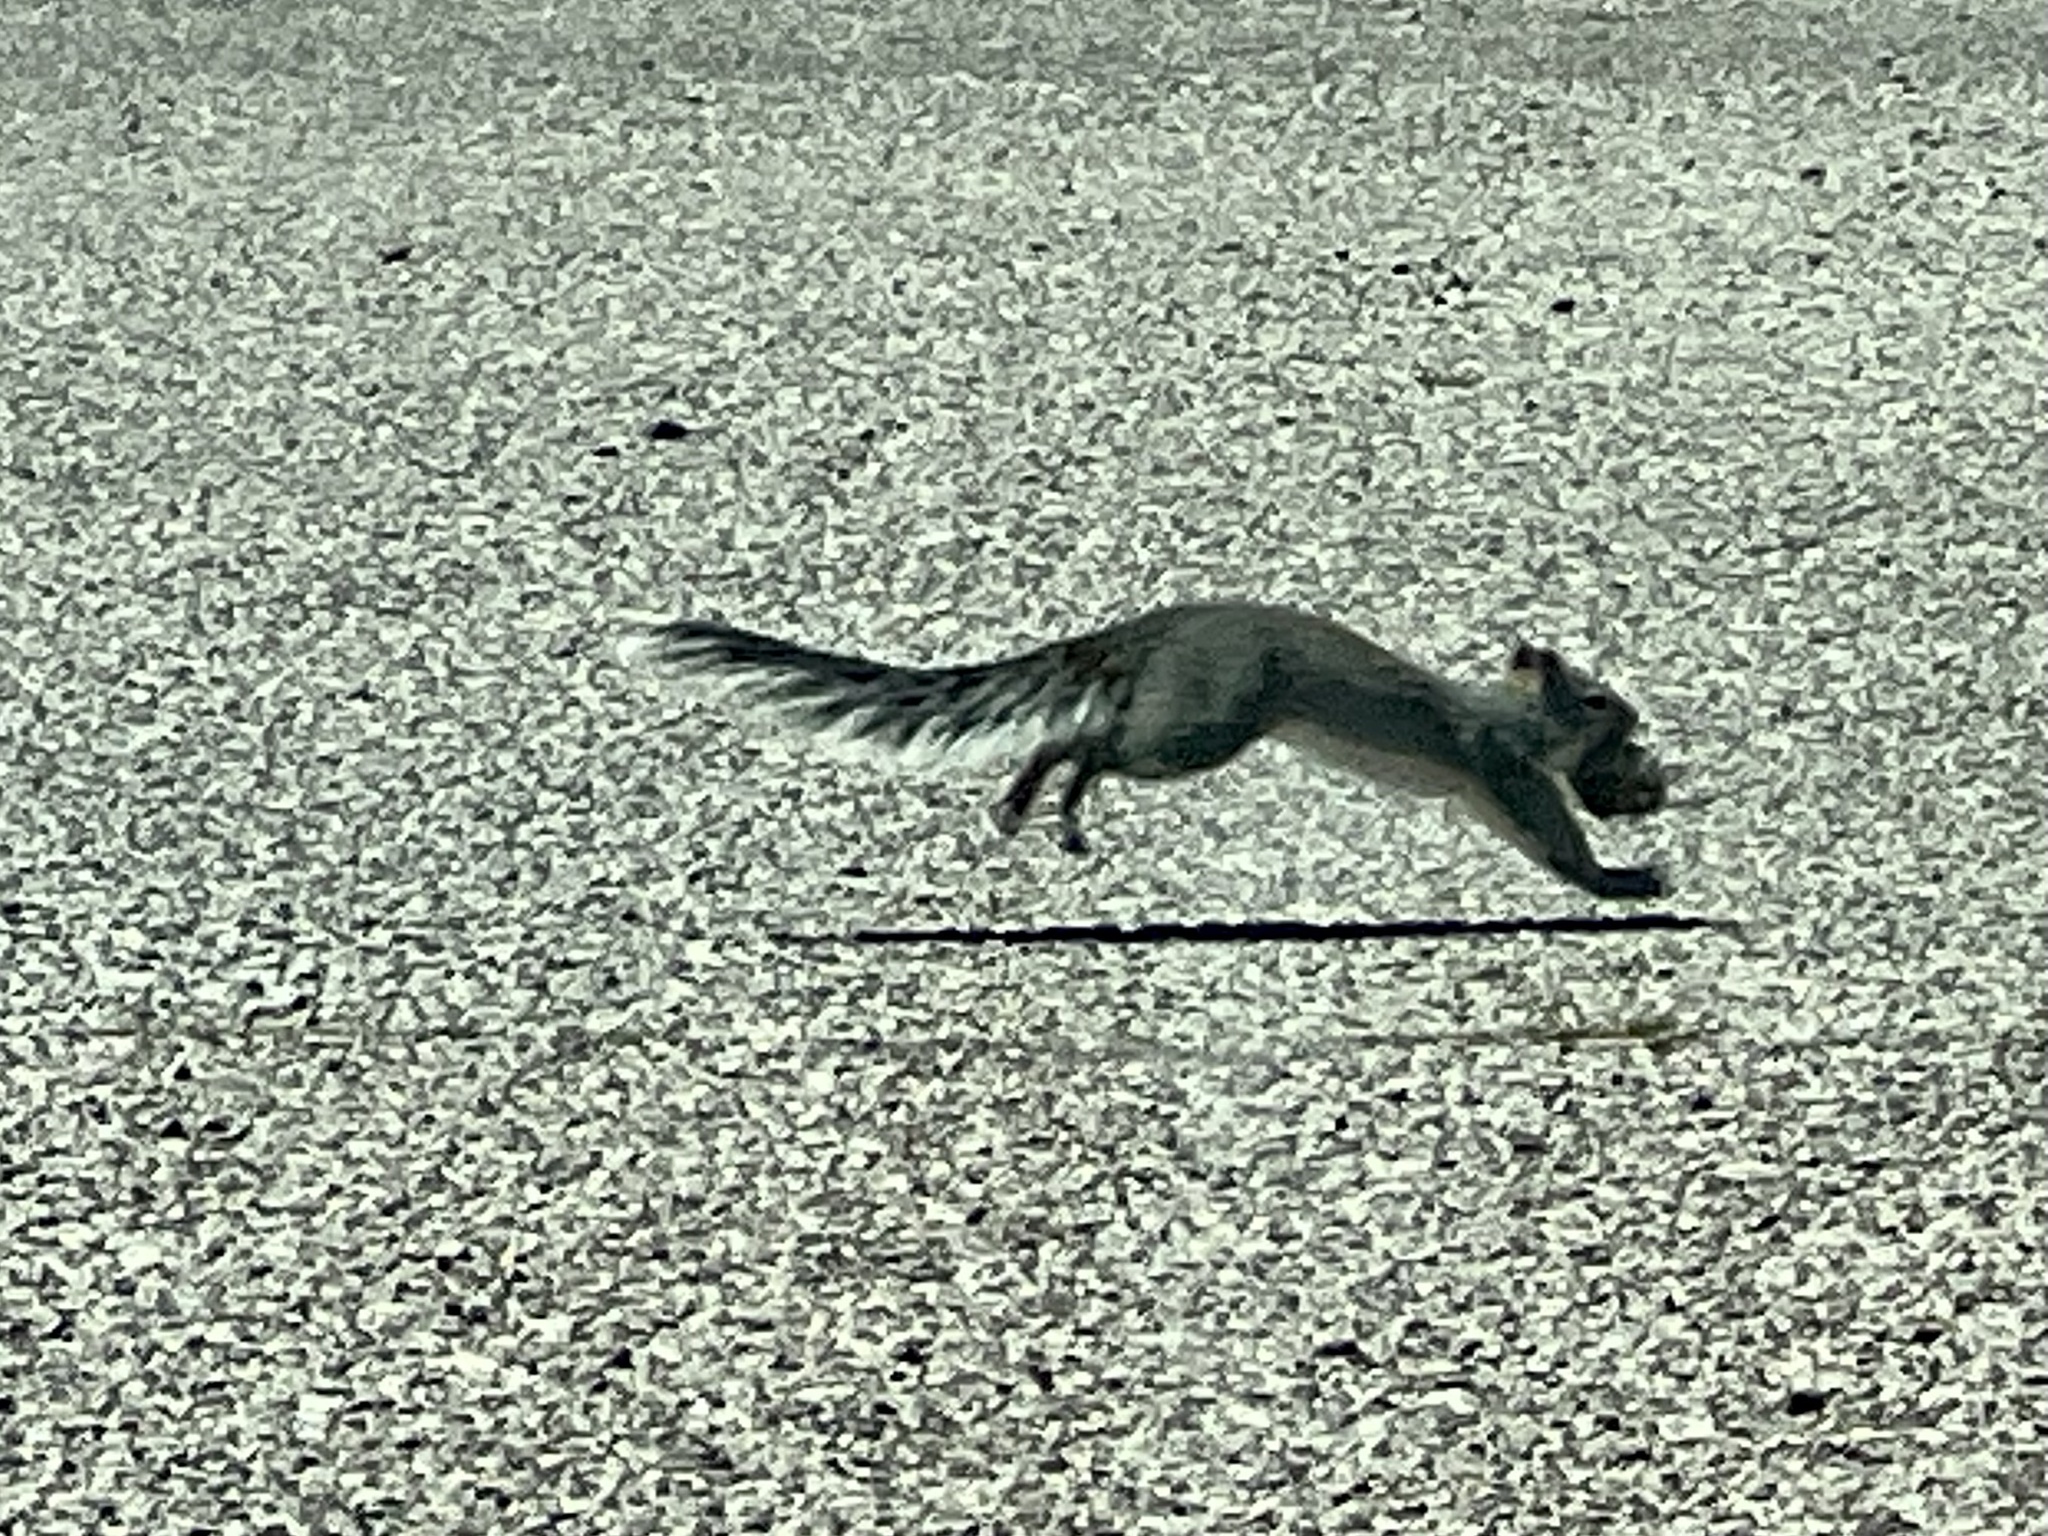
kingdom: Animalia
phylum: Chordata
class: Mammalia
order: Rodentia
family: Sciuridae
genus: Sciurus
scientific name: Sciurus arizonensis
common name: Arizona gray squirrel
